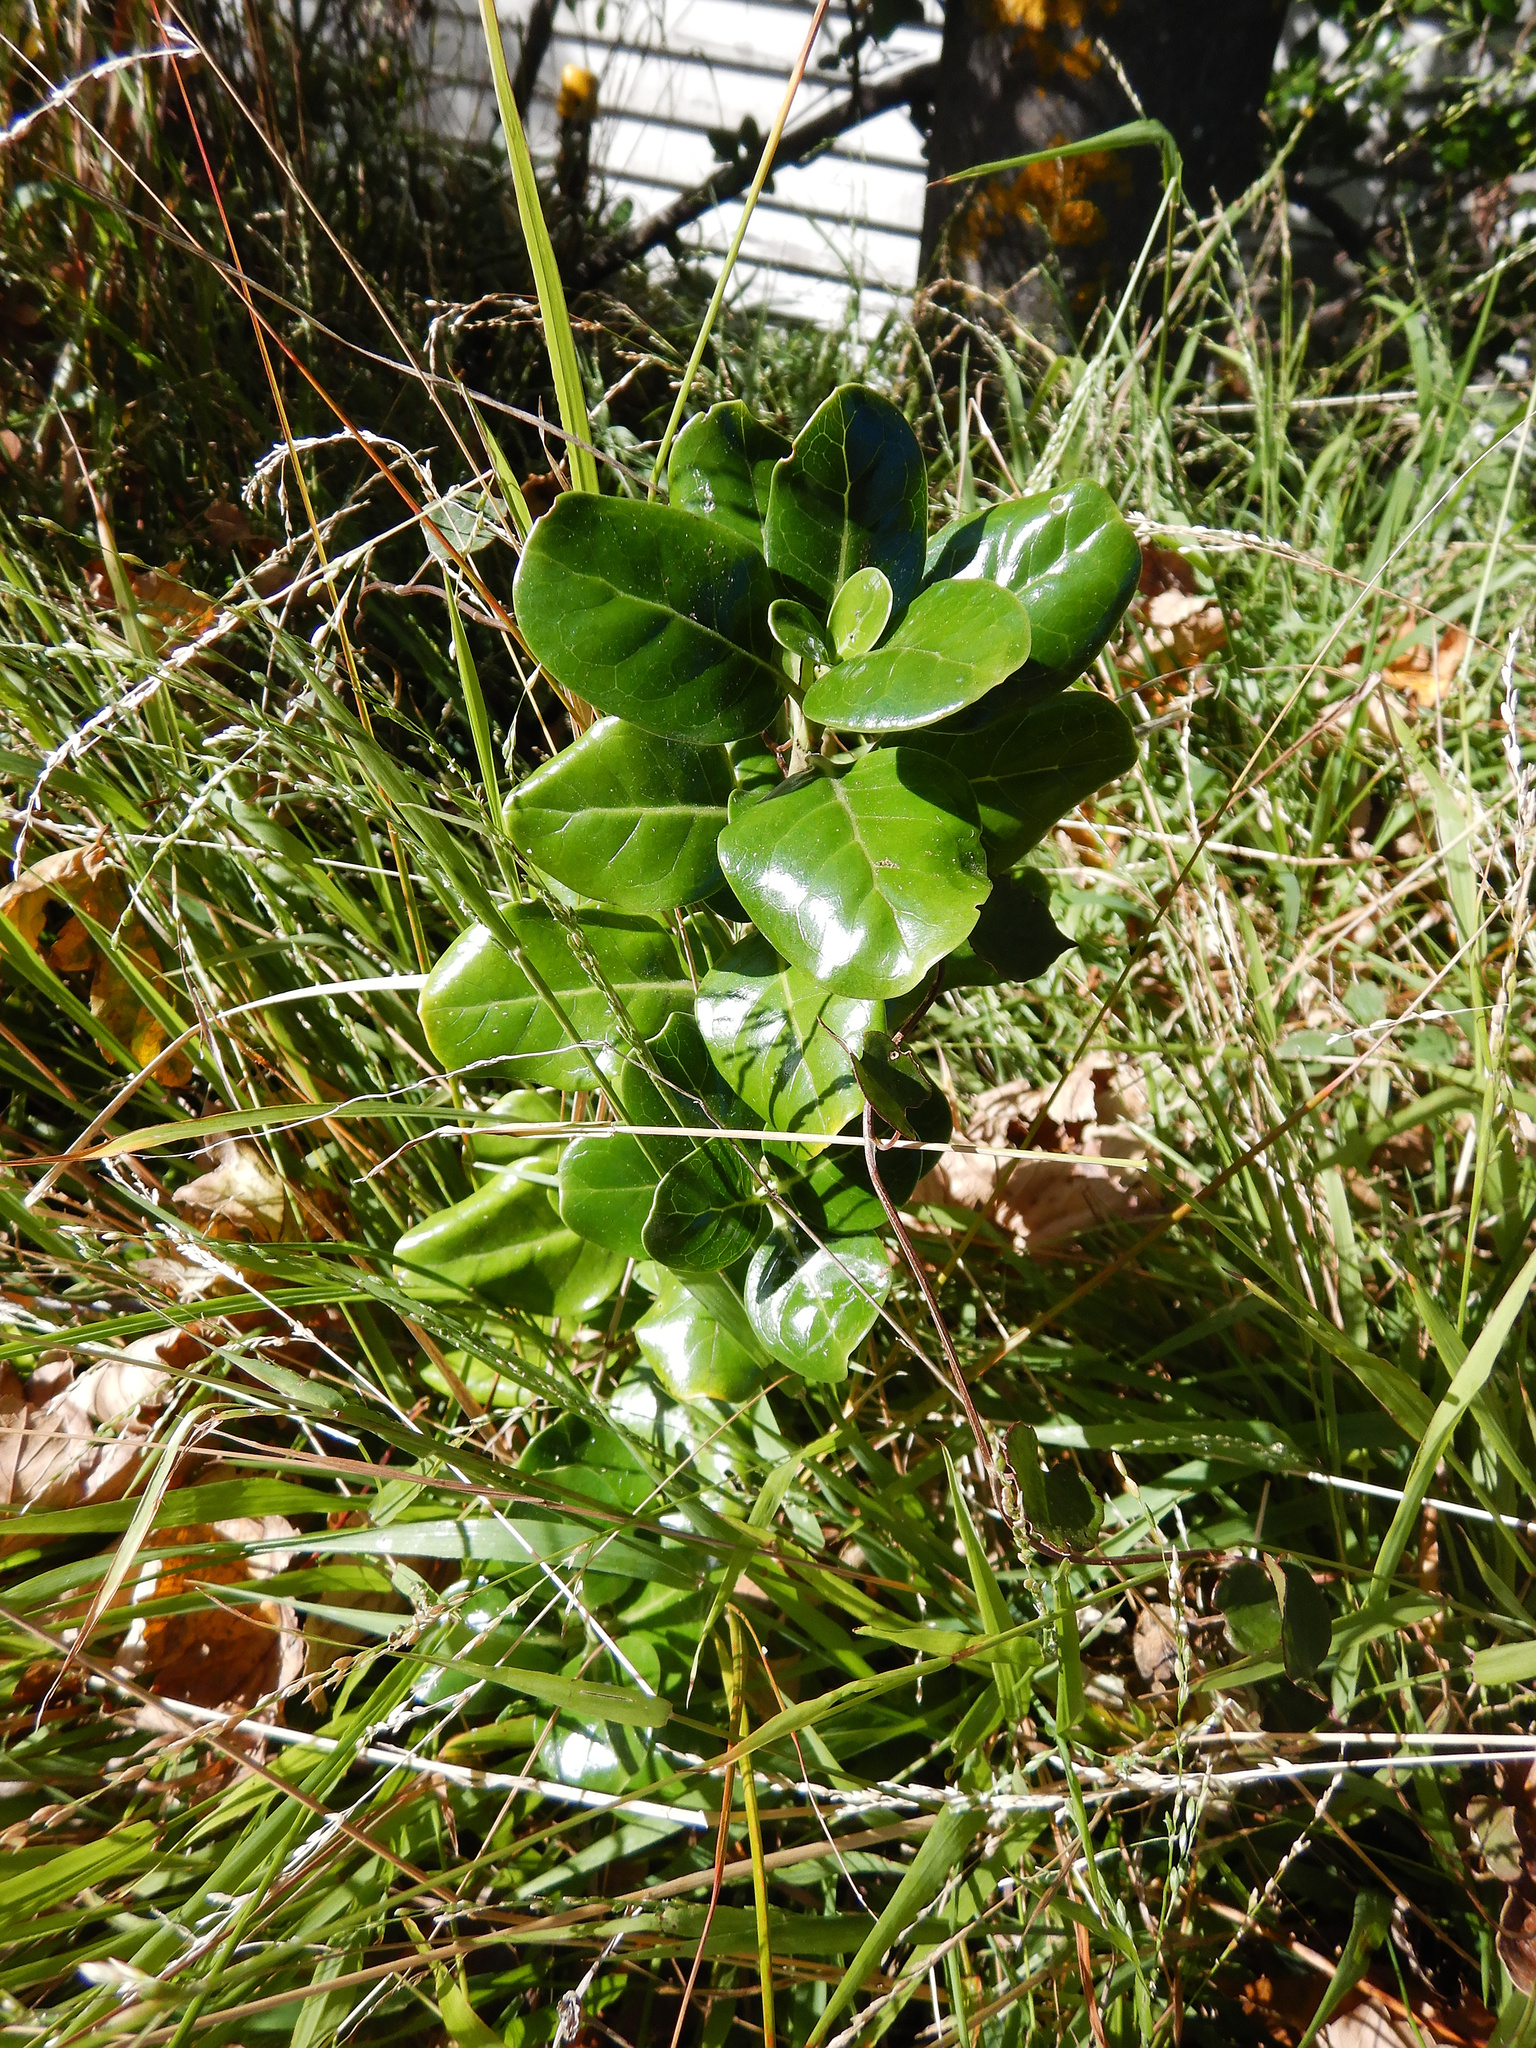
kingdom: Plantae
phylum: Tracheophyta
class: Magnoliopsida
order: Gentianales
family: Rubiaceae
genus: Coprosma
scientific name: Coprosma repens
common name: Tree bedstraw
